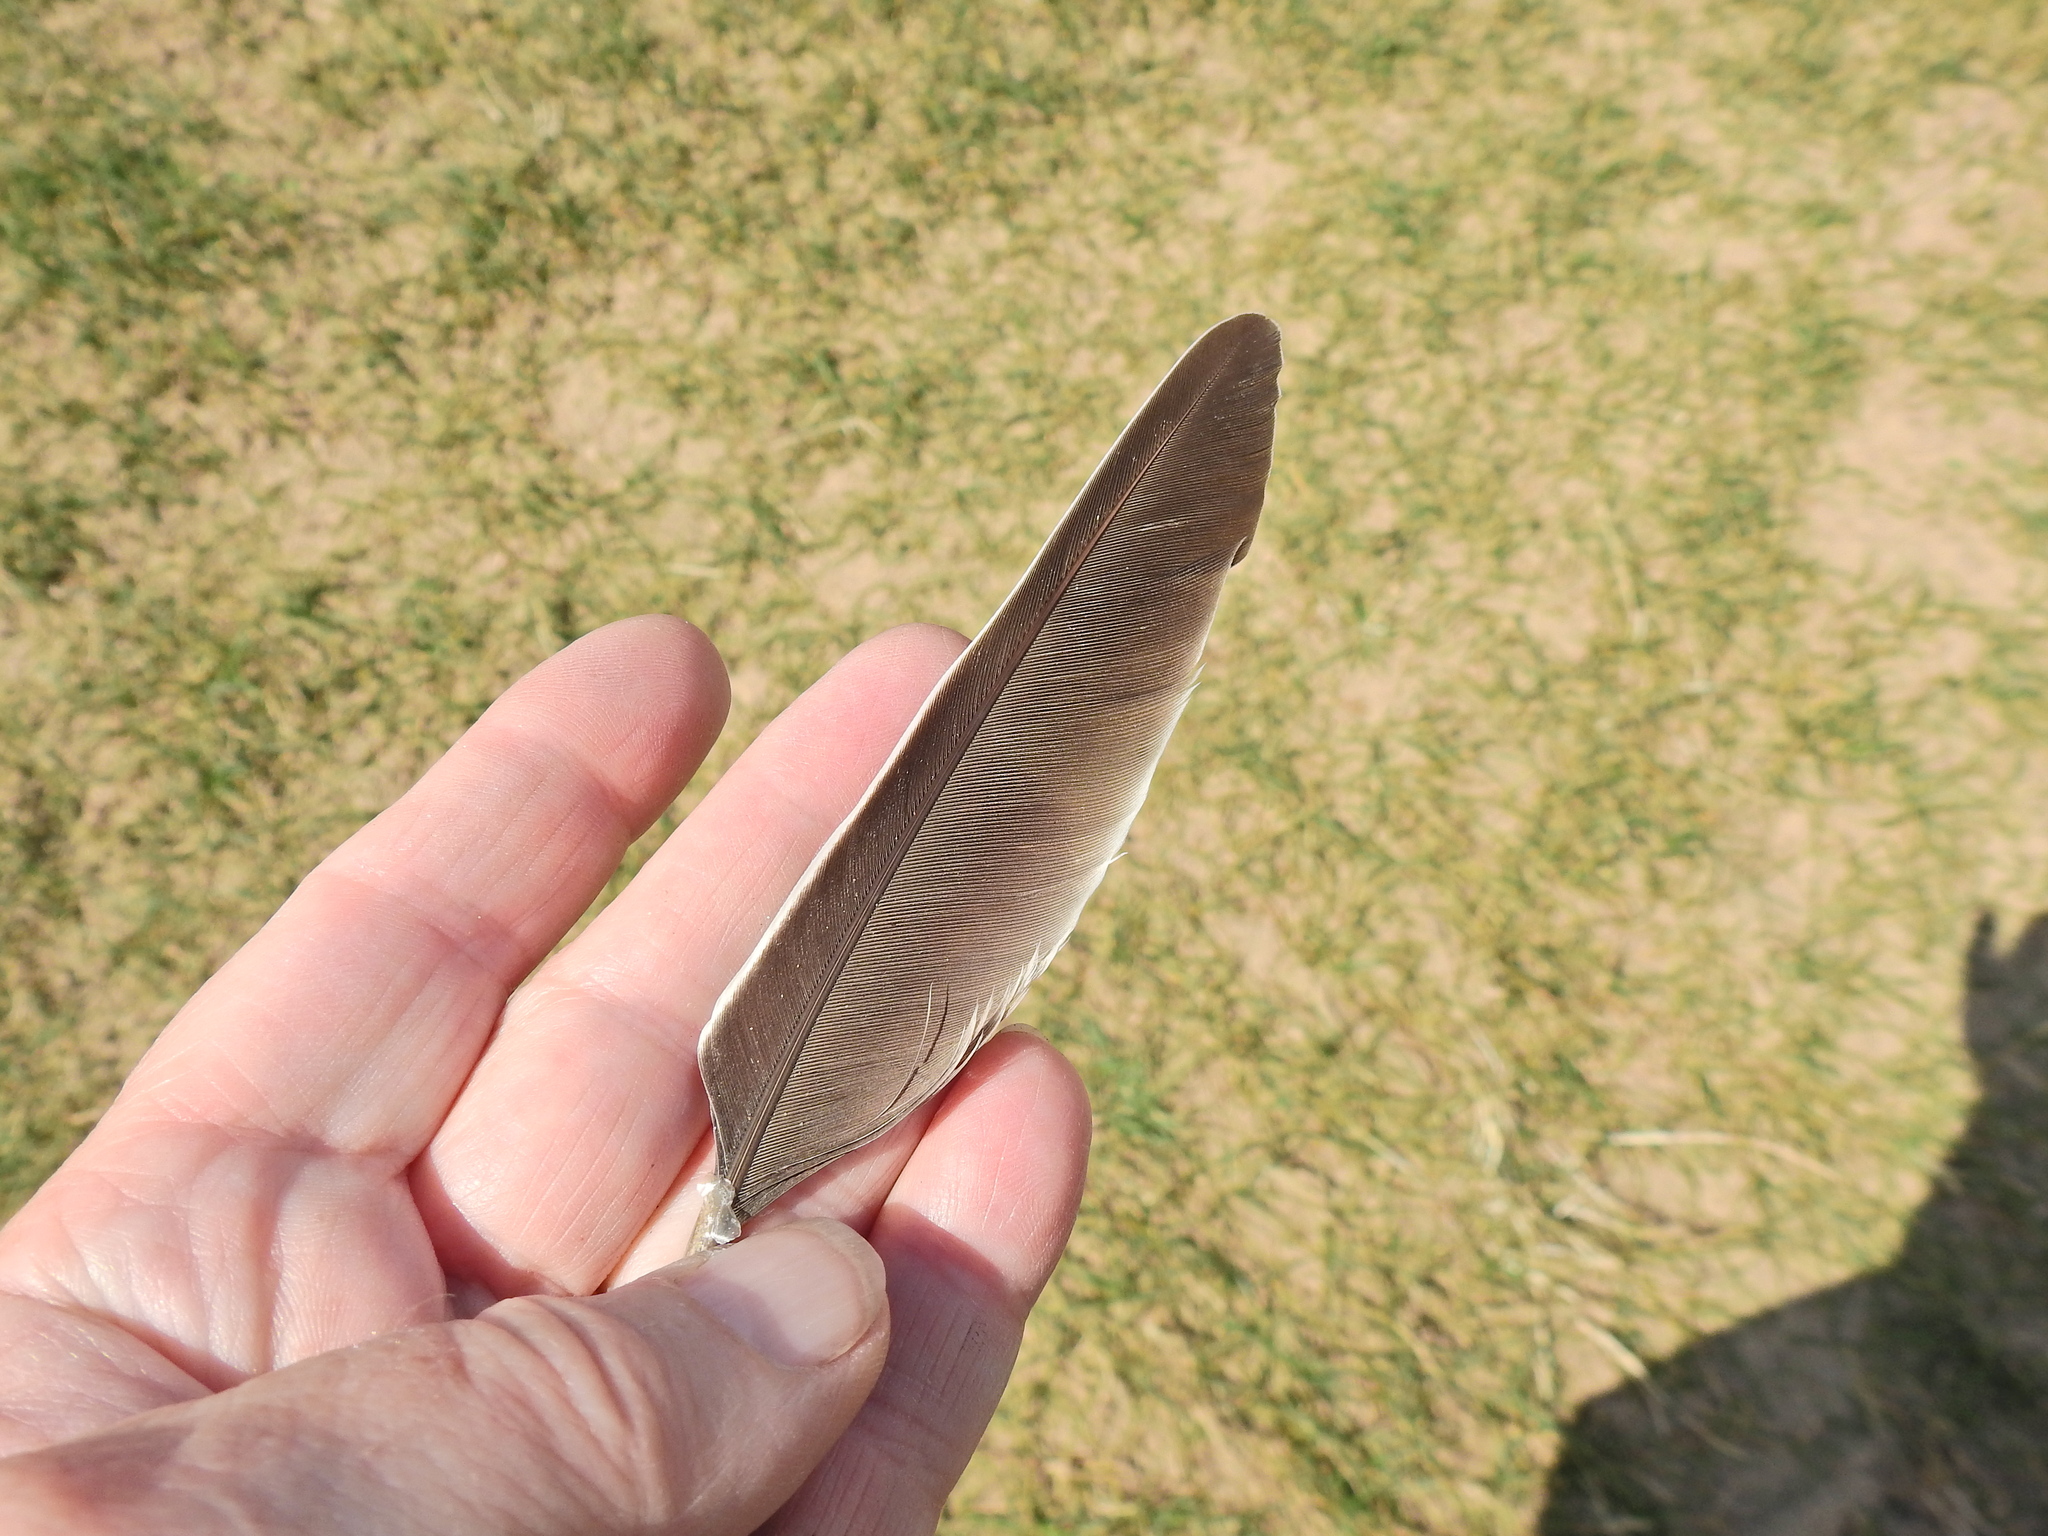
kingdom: Animalia
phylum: Chordata
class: Aves
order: Columbiformes
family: Columbidae
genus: Columba
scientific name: Columba palumbus
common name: Common wood pigeon
